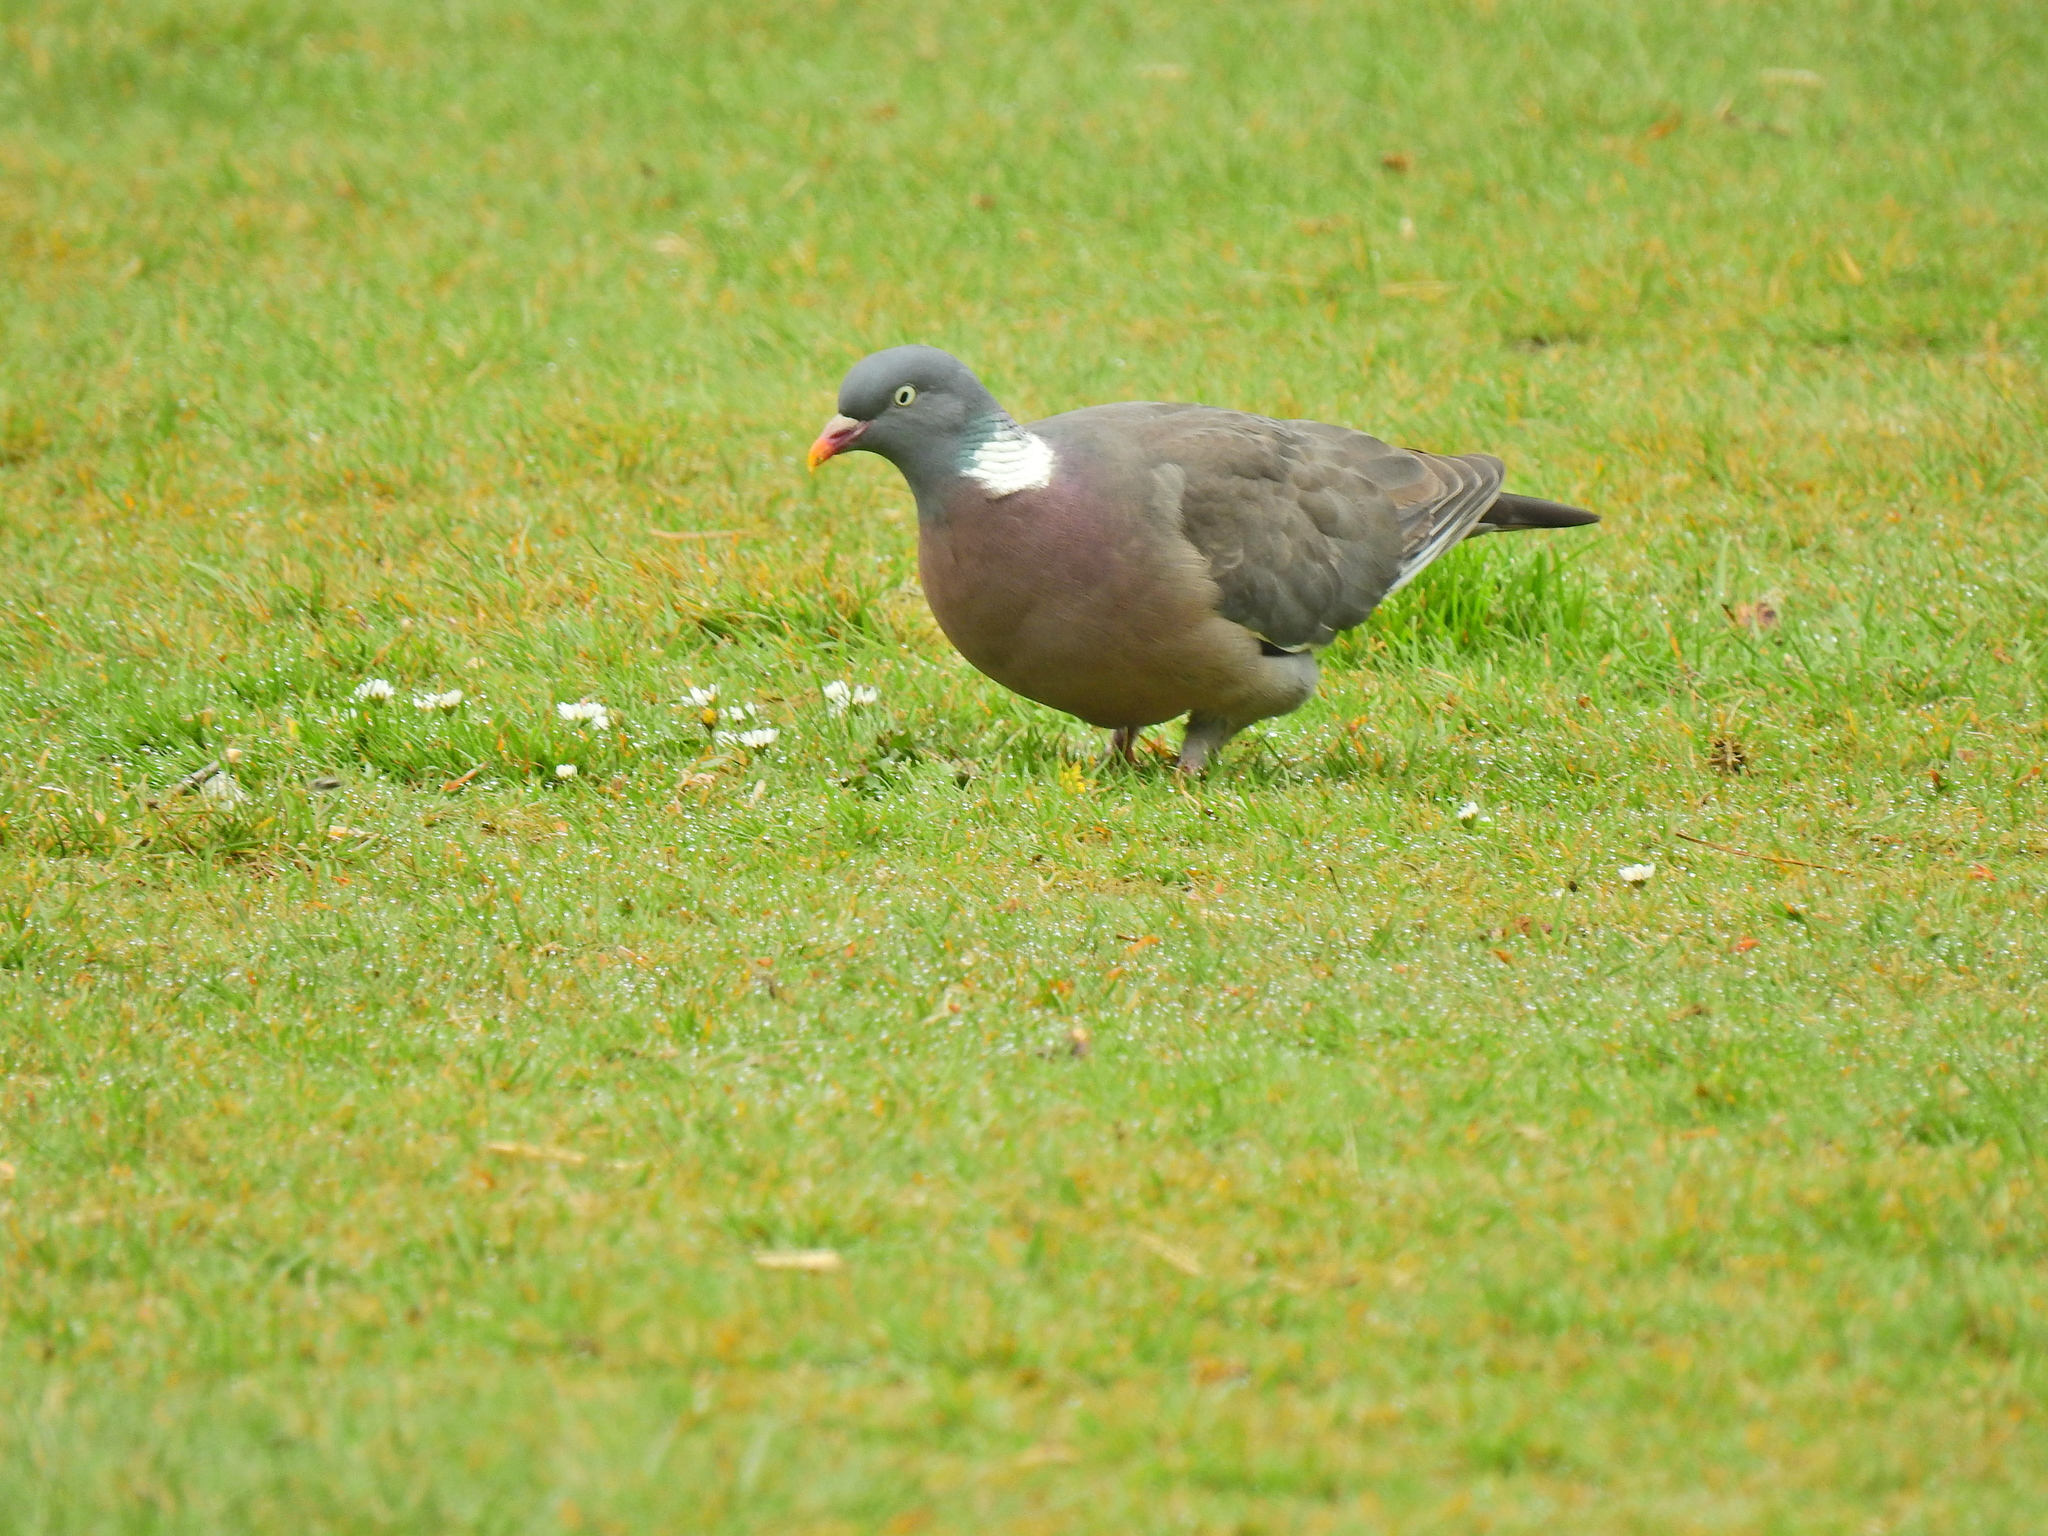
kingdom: Animalia
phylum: Chordata
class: Aves
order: Columbiformes
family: Columbidae
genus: Columba
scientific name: Columba palumbus
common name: Common wood pigeon
